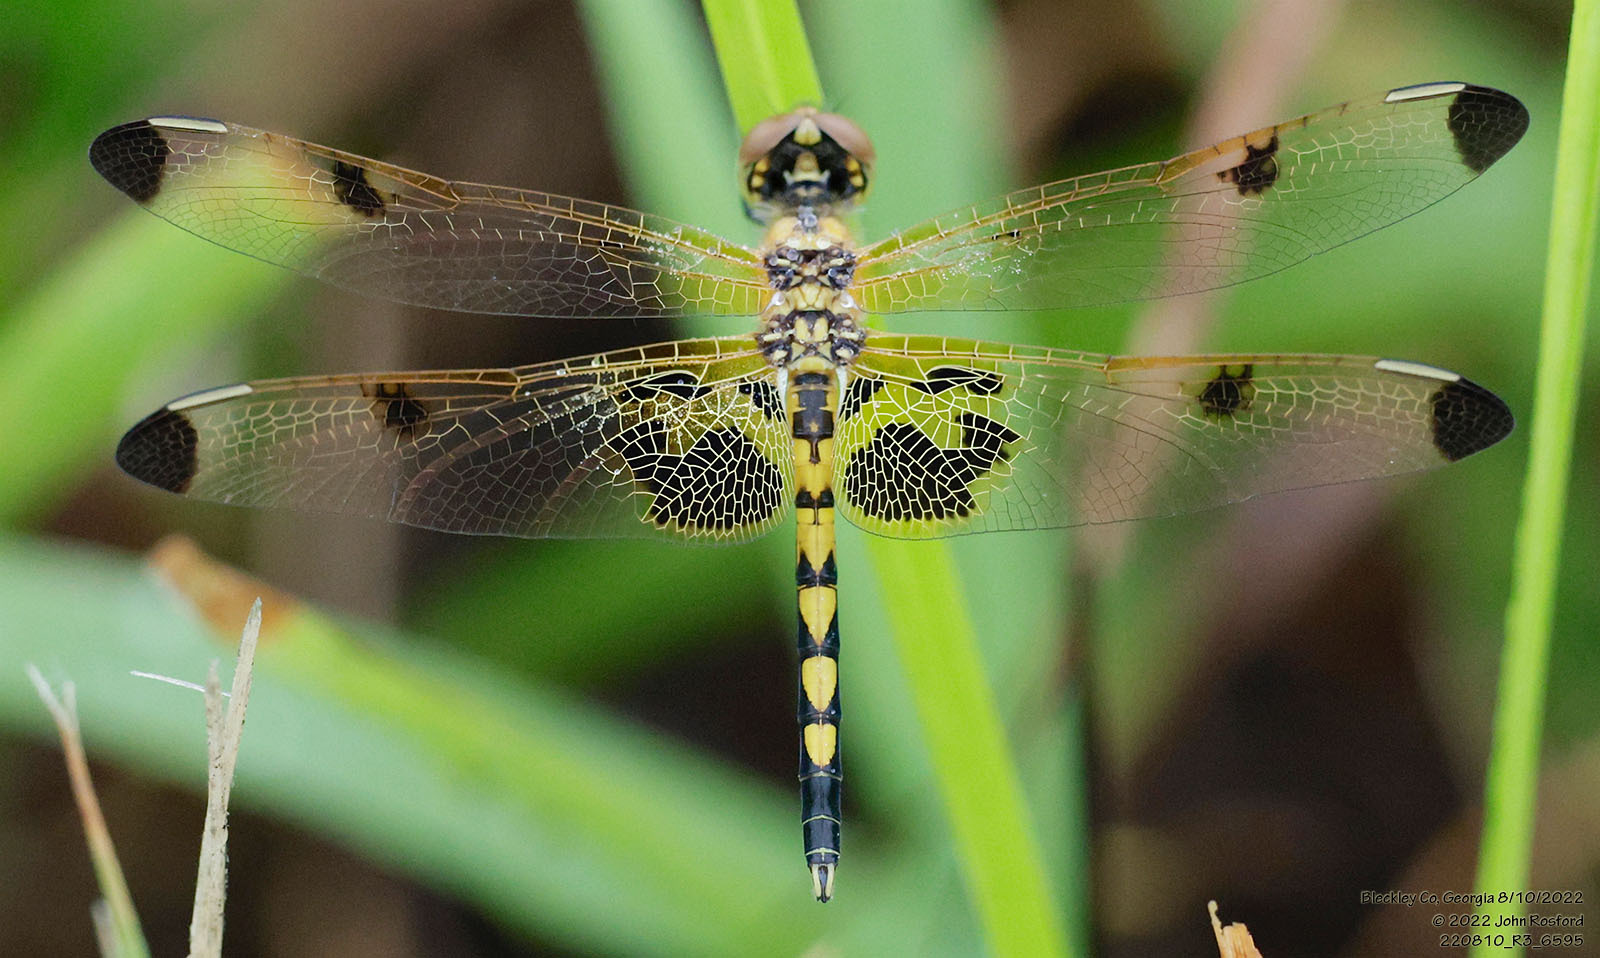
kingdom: Animalia
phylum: Arthropoda
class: Insecta
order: Odonata
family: Libellulidae
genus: Celithemis
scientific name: Celithemis elisa
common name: Calico pennant
